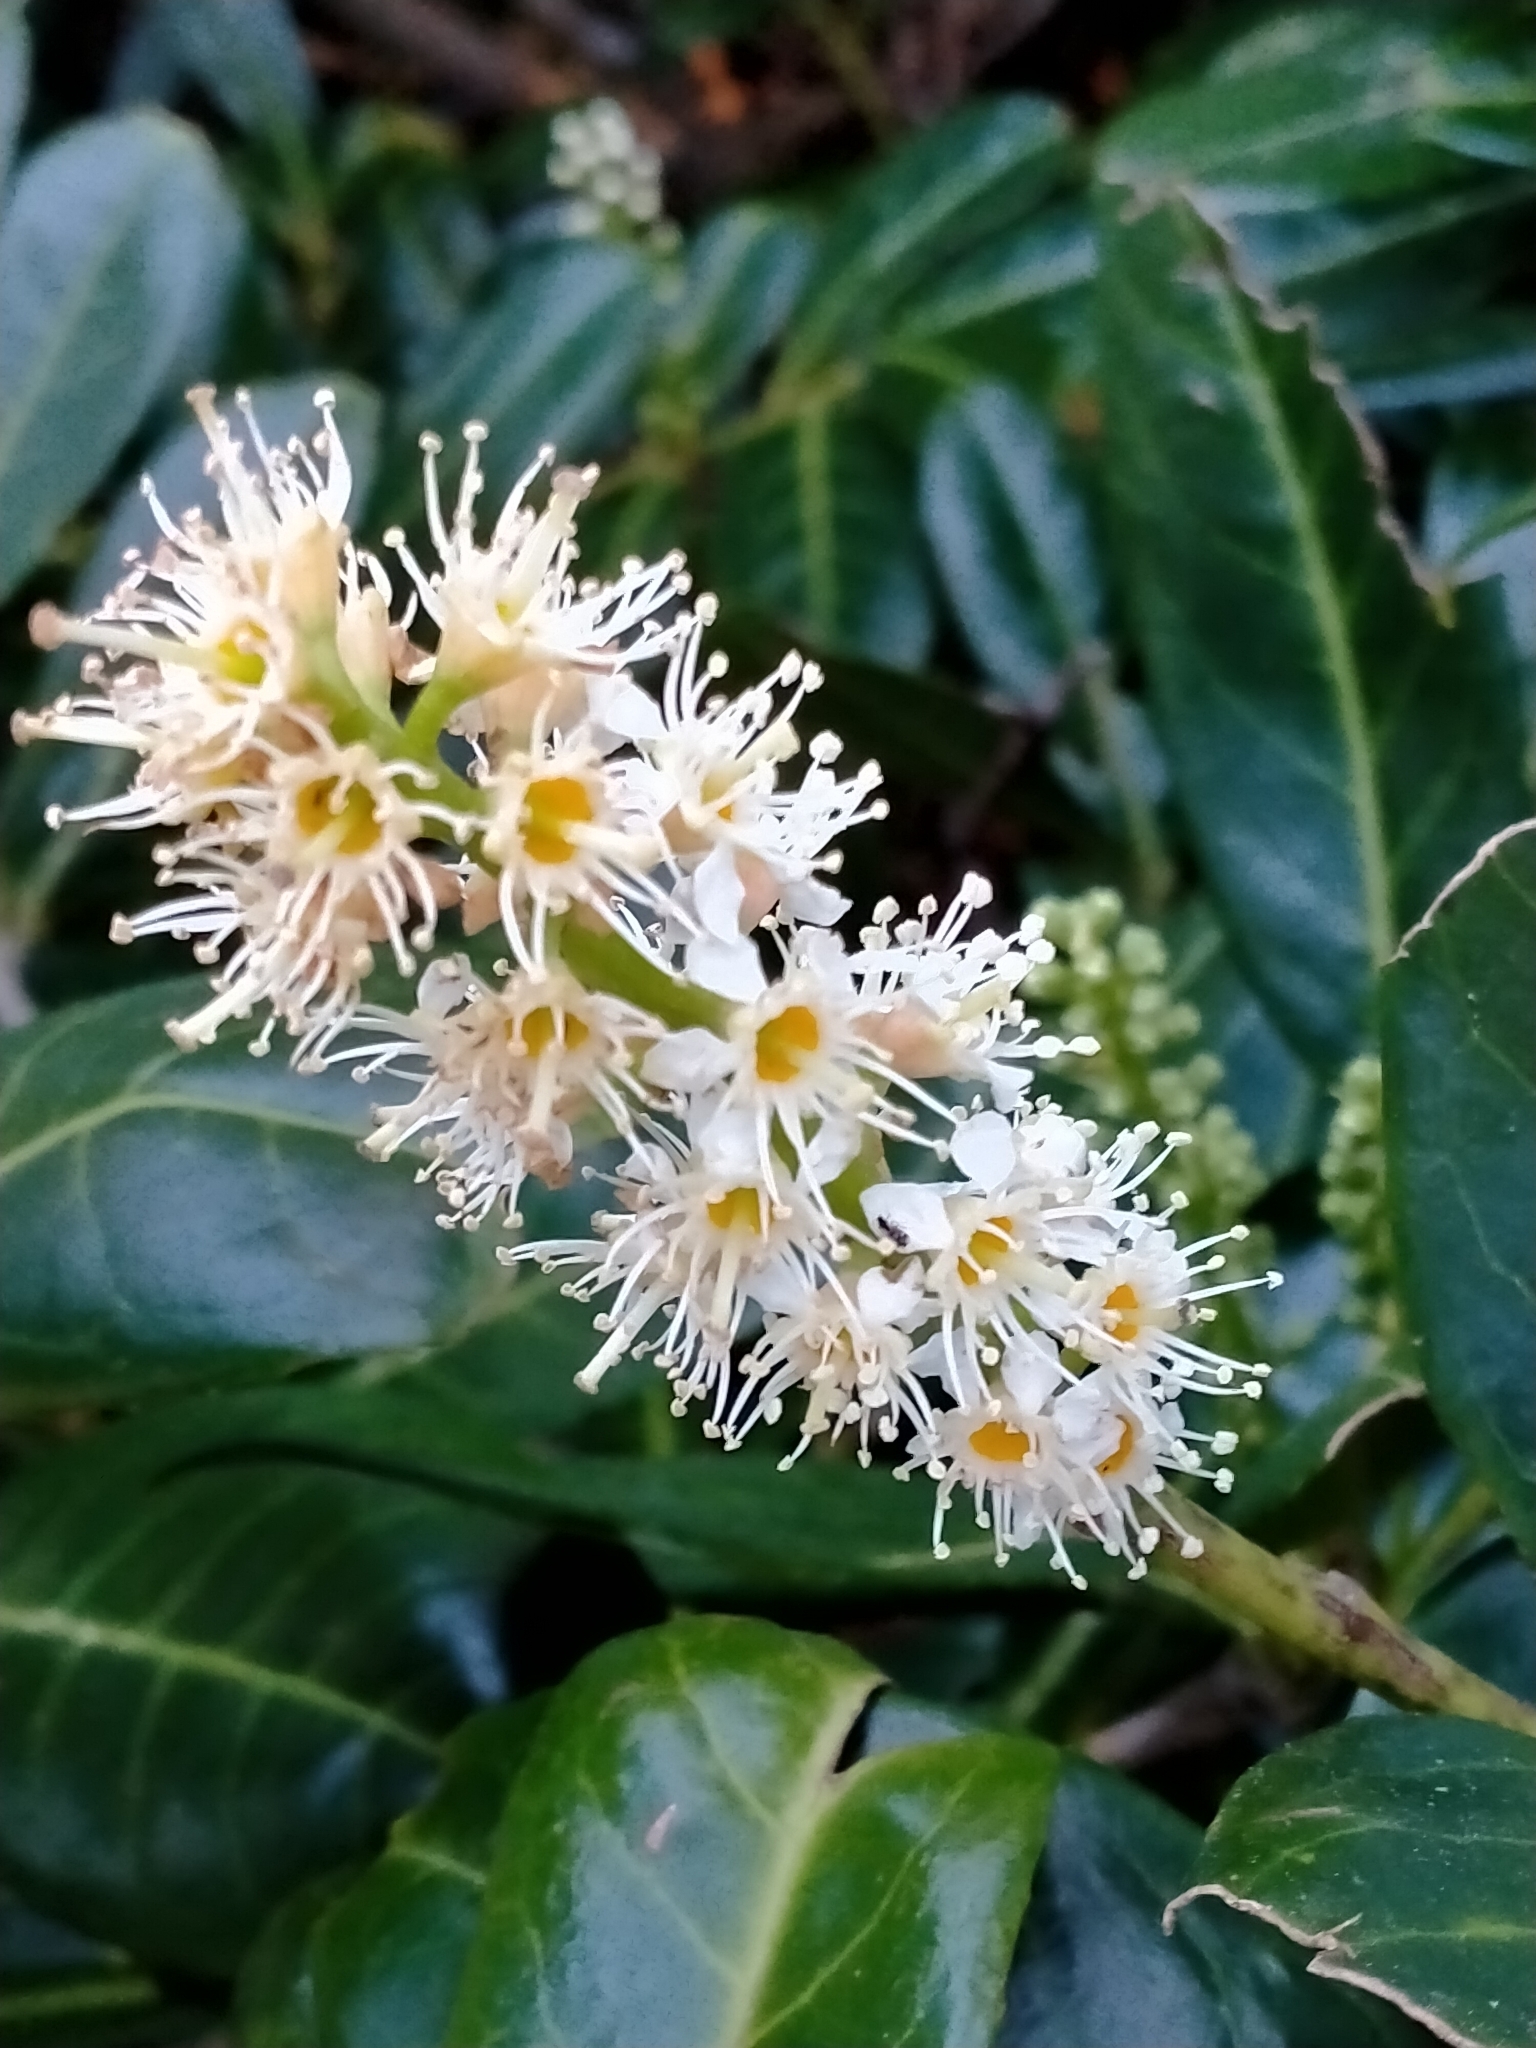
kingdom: Plantae
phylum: Tracheophyta
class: Magnoliopsida
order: Rosales
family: Rosaceae
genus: Prunus
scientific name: Prunus laurocerasus
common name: Cherry laurel
